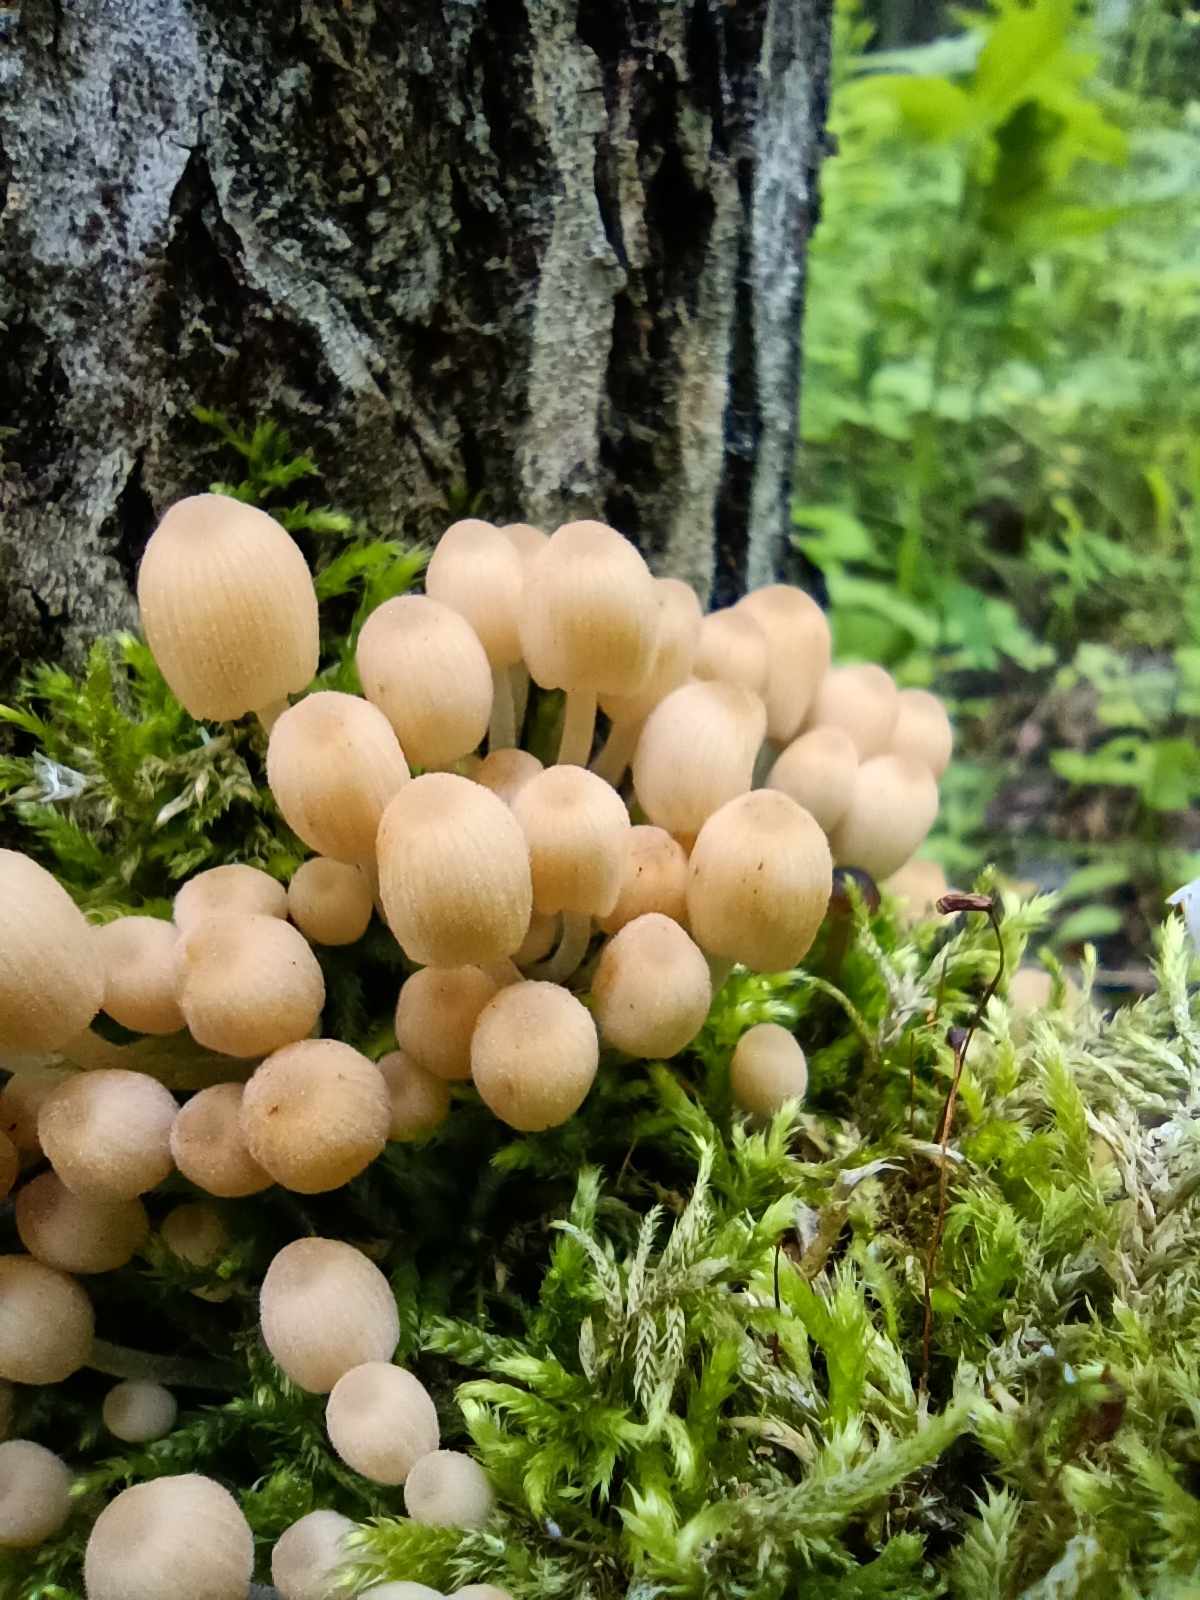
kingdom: Fungi
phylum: Basidiomycota
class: Agaricomycetes
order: Agaricales
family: Psathyrellaceae
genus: Coprinellus
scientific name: Coprinellus disseminatus
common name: Fairies' bonnets
